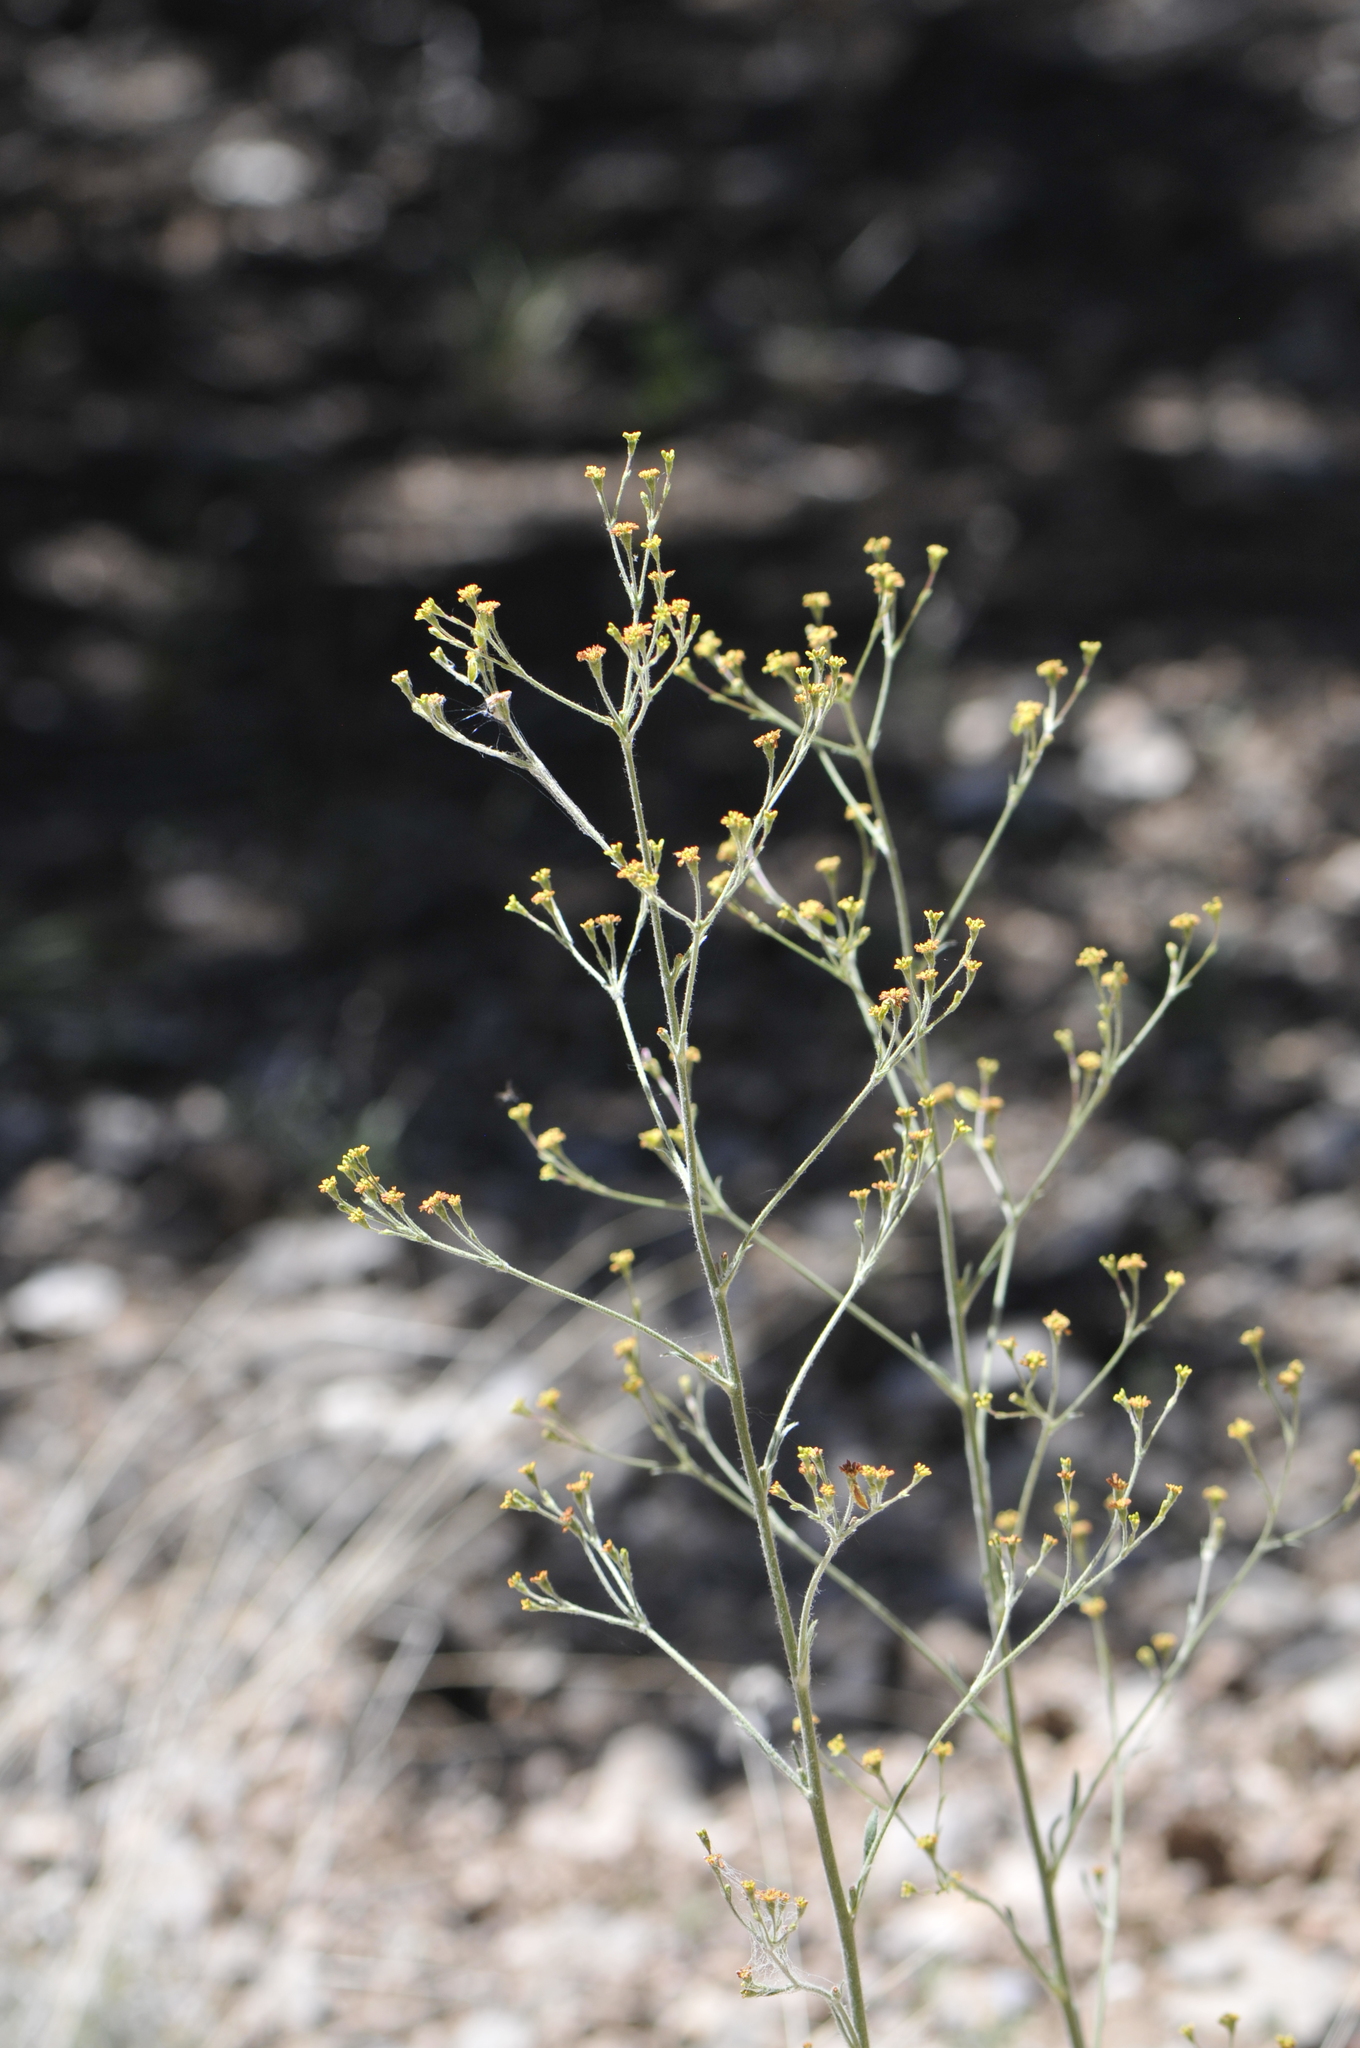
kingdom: Plantae
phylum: Tracheophyta
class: Magnoliopsida
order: Caryophyllales
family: Polygonaceae
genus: Eriogonum
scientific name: Eriogonum alatum
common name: Winged eriogonum
